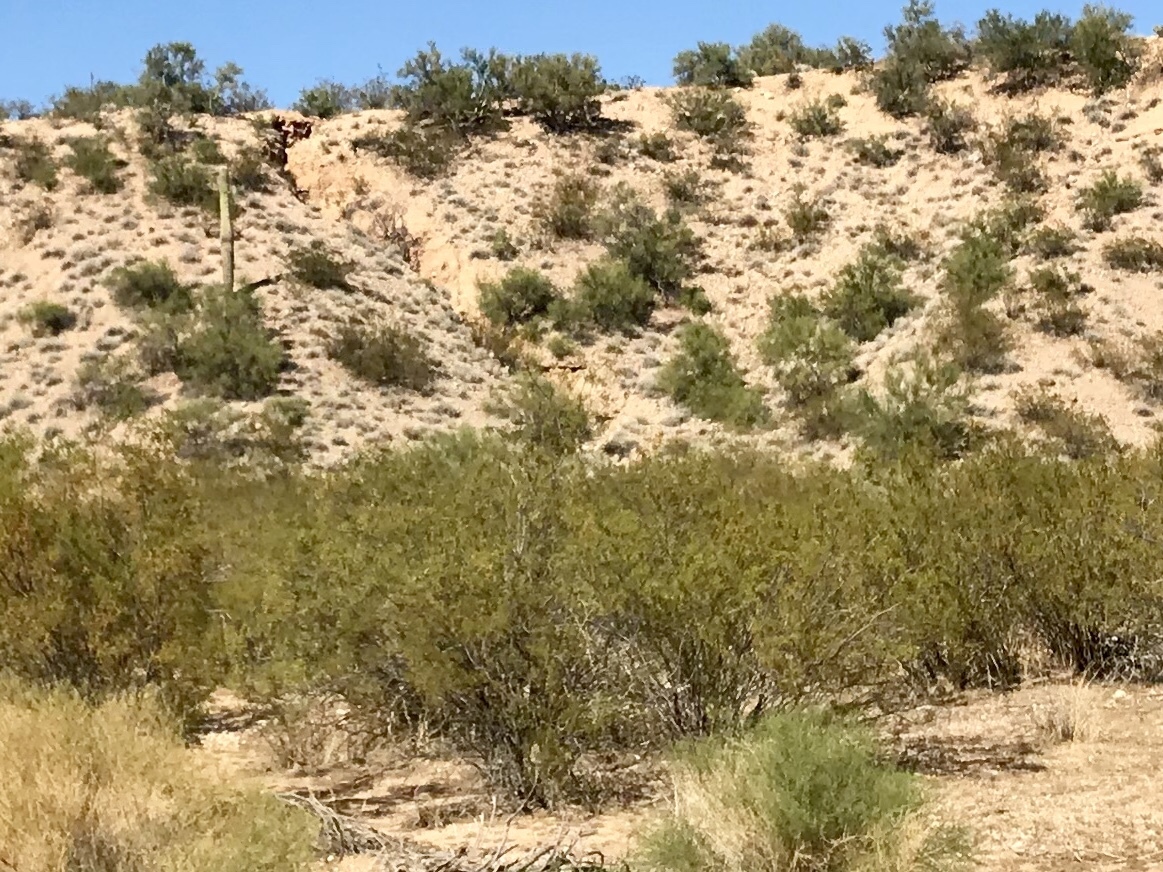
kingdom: Plantae
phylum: Tracheophyta
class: Magnoliopsida
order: Zygophyllales
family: Zygophyllaceae
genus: Larrea
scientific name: Larrea tridentata
